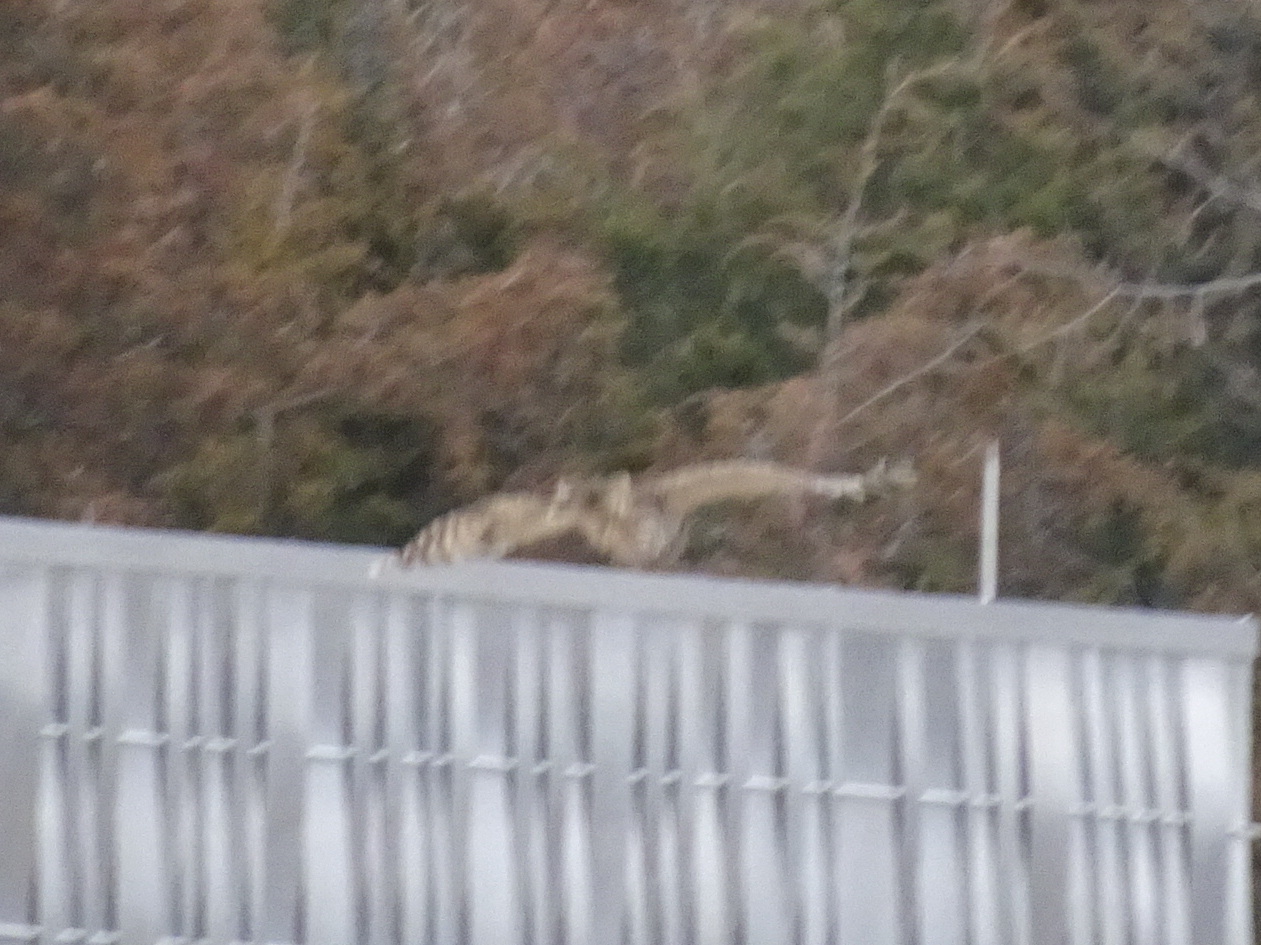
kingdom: Animalia
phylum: Chordata
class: Aves
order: Strigiformes
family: Strigidae
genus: Strix
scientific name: Strix varia
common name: Barred owl
